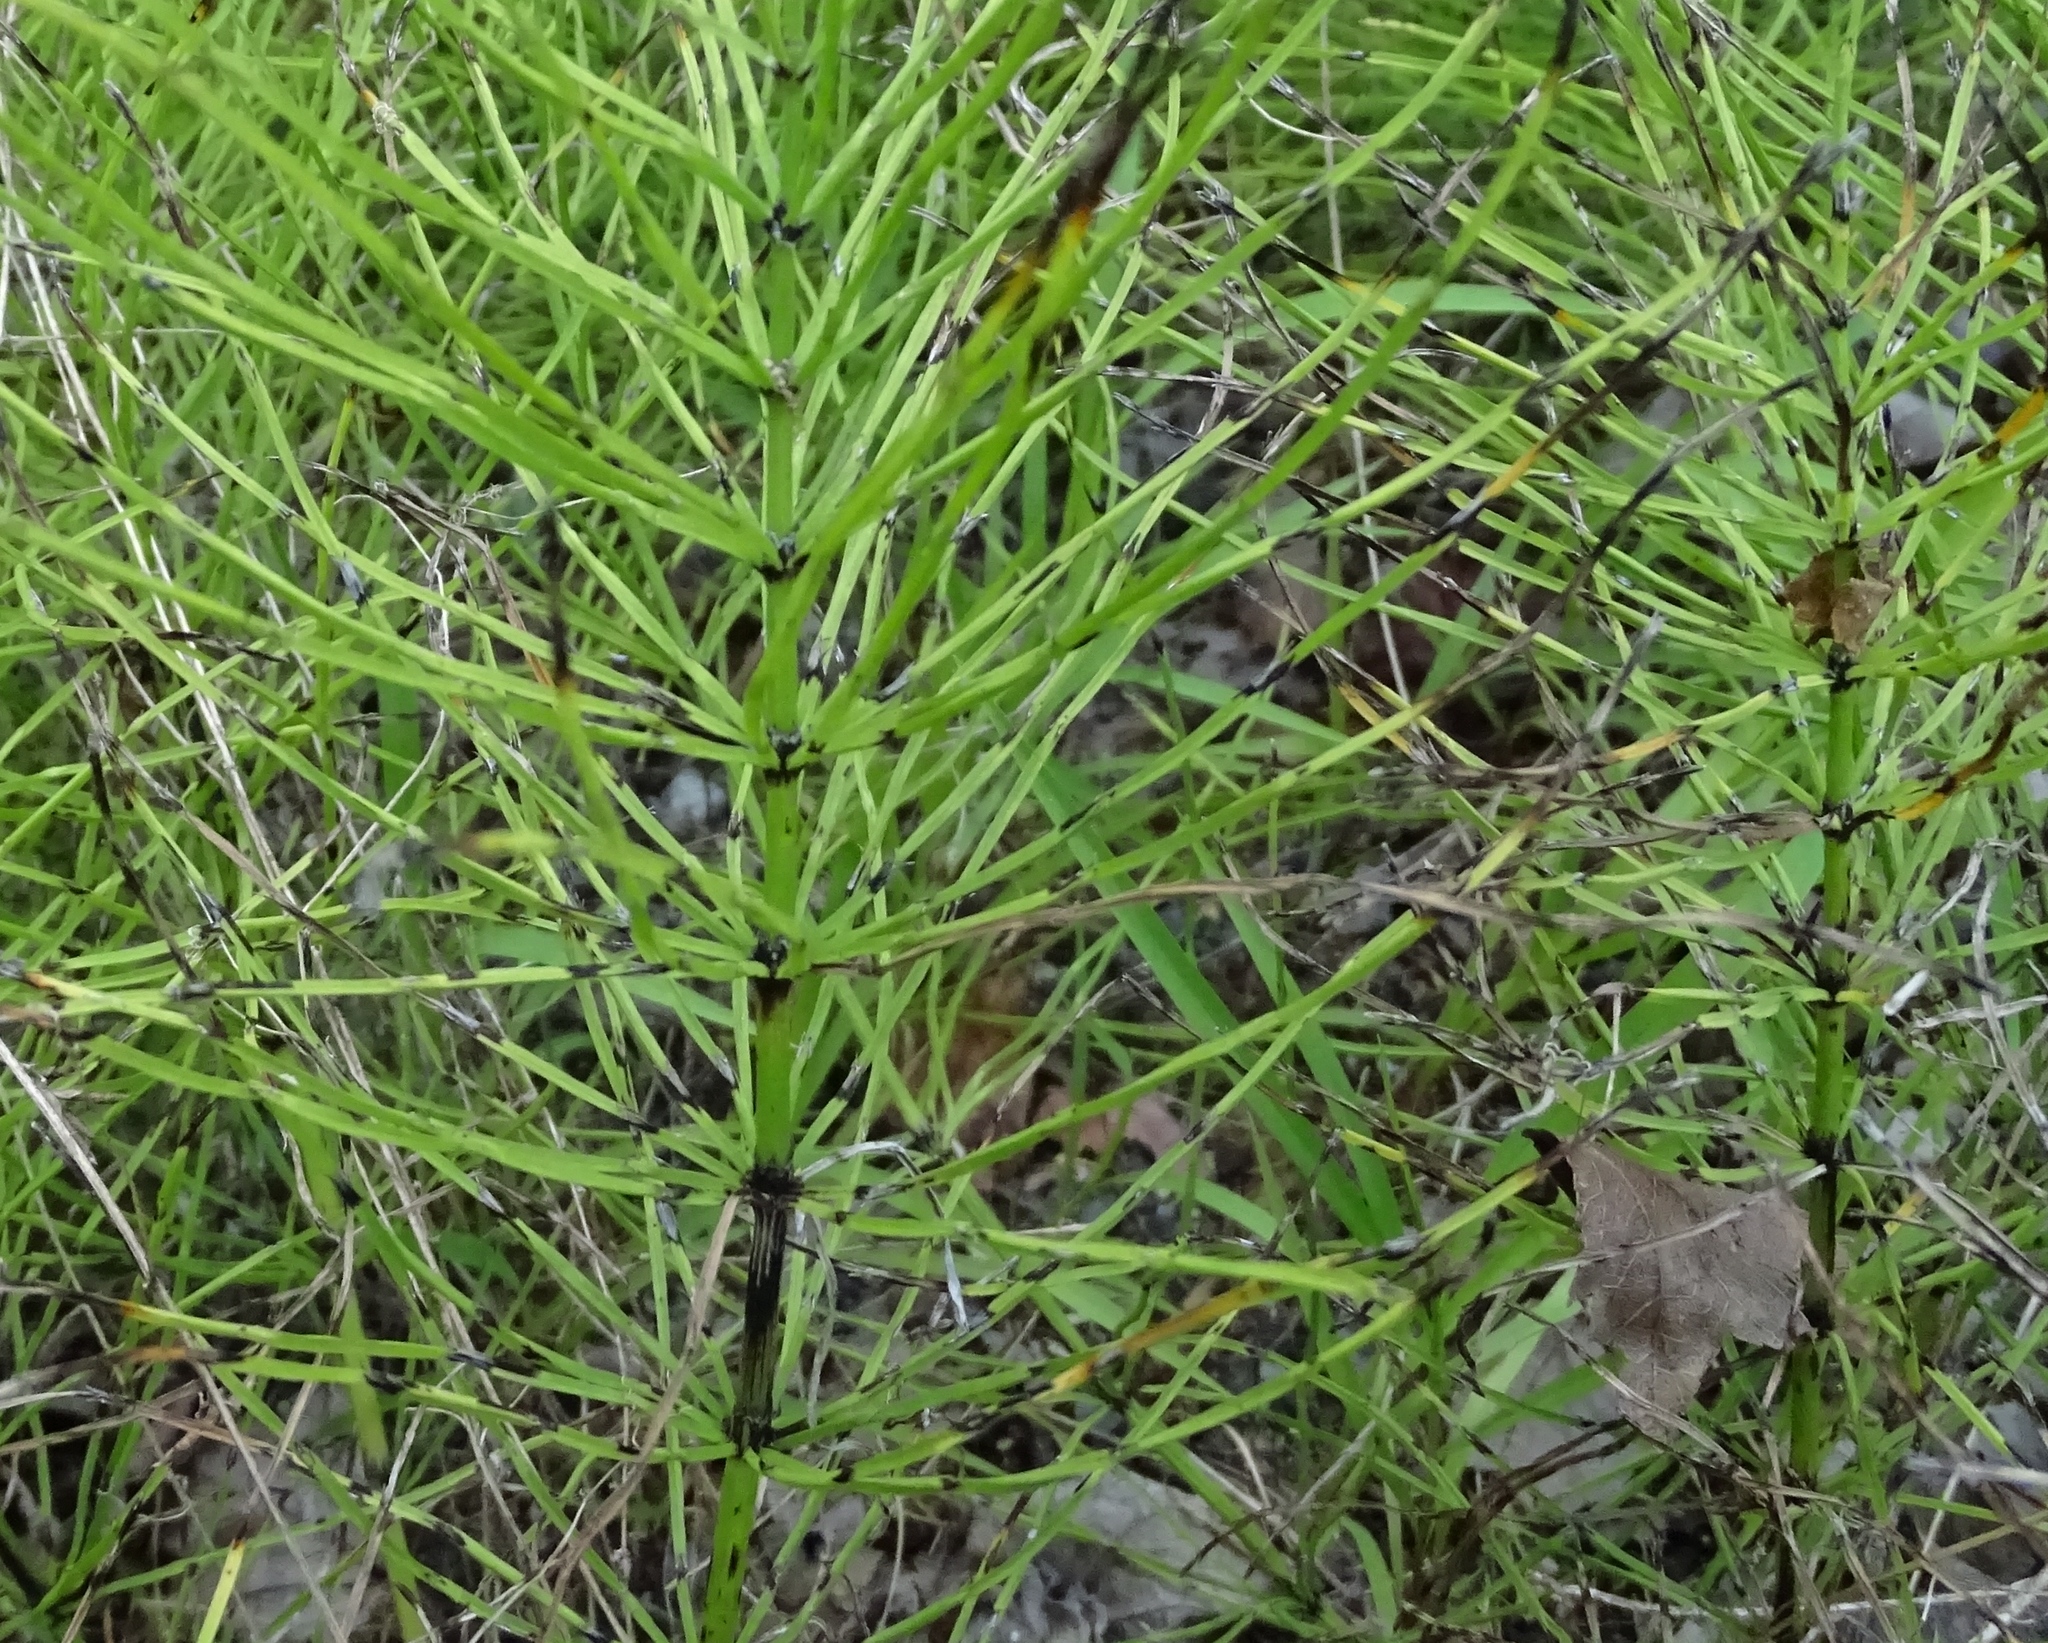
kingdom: Plantae
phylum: Tracheophyta
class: Polypodiopsida
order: Equisetales
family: Equisetaceae
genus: Equisetum
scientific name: Equisetum arvense
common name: Field horsetail
